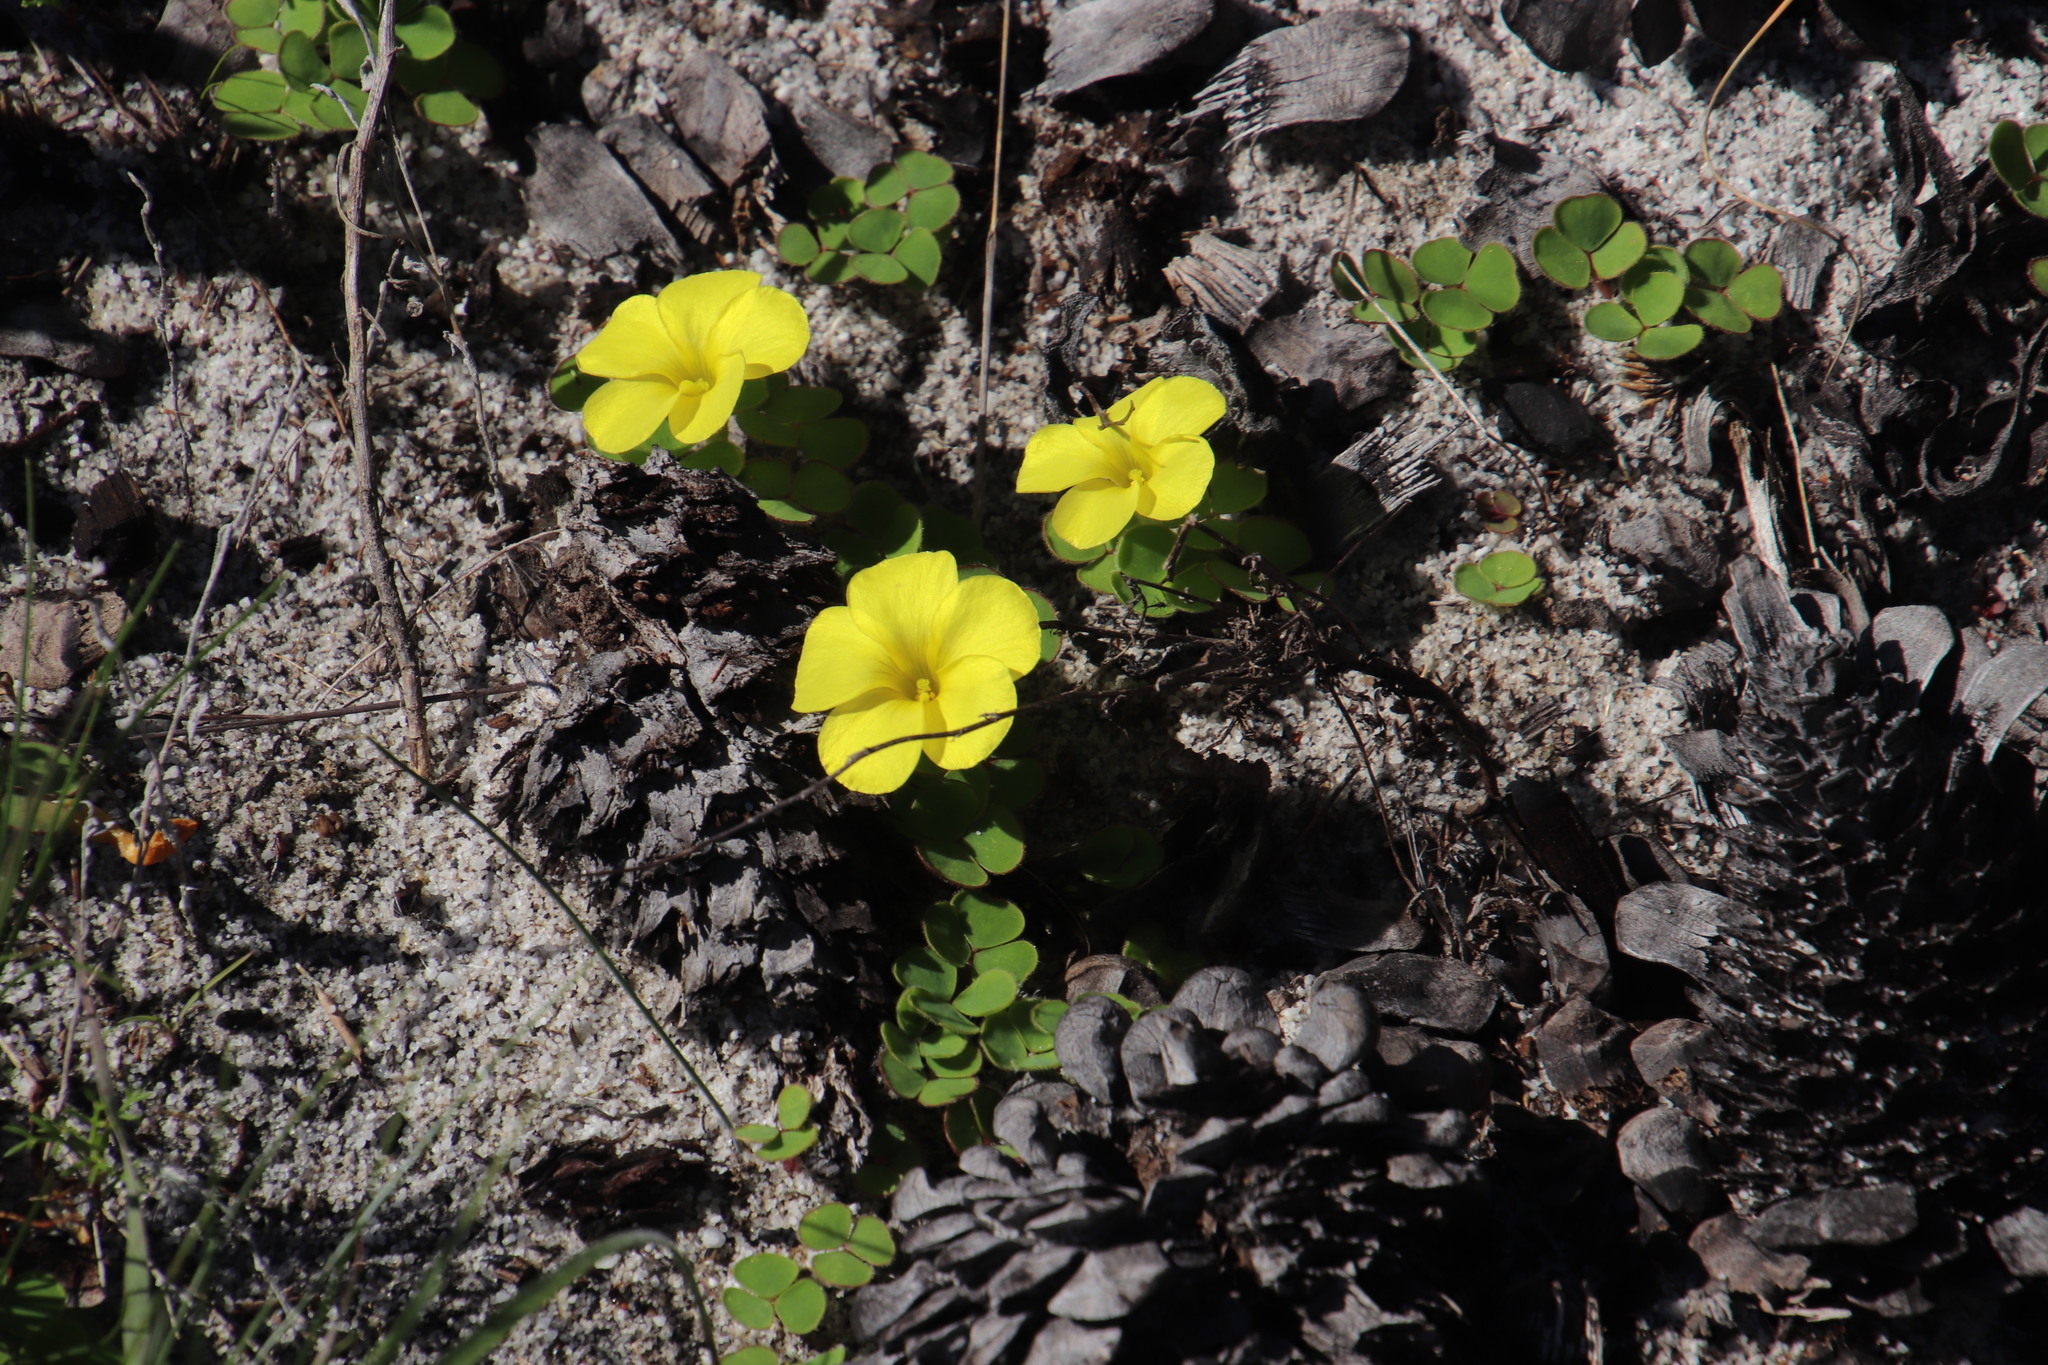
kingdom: Plantae
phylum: Tracheophyta
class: Magnoliopsida
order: Oxalidales
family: Oxalidaceae
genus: Oxalis
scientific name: Oxalis luteola
